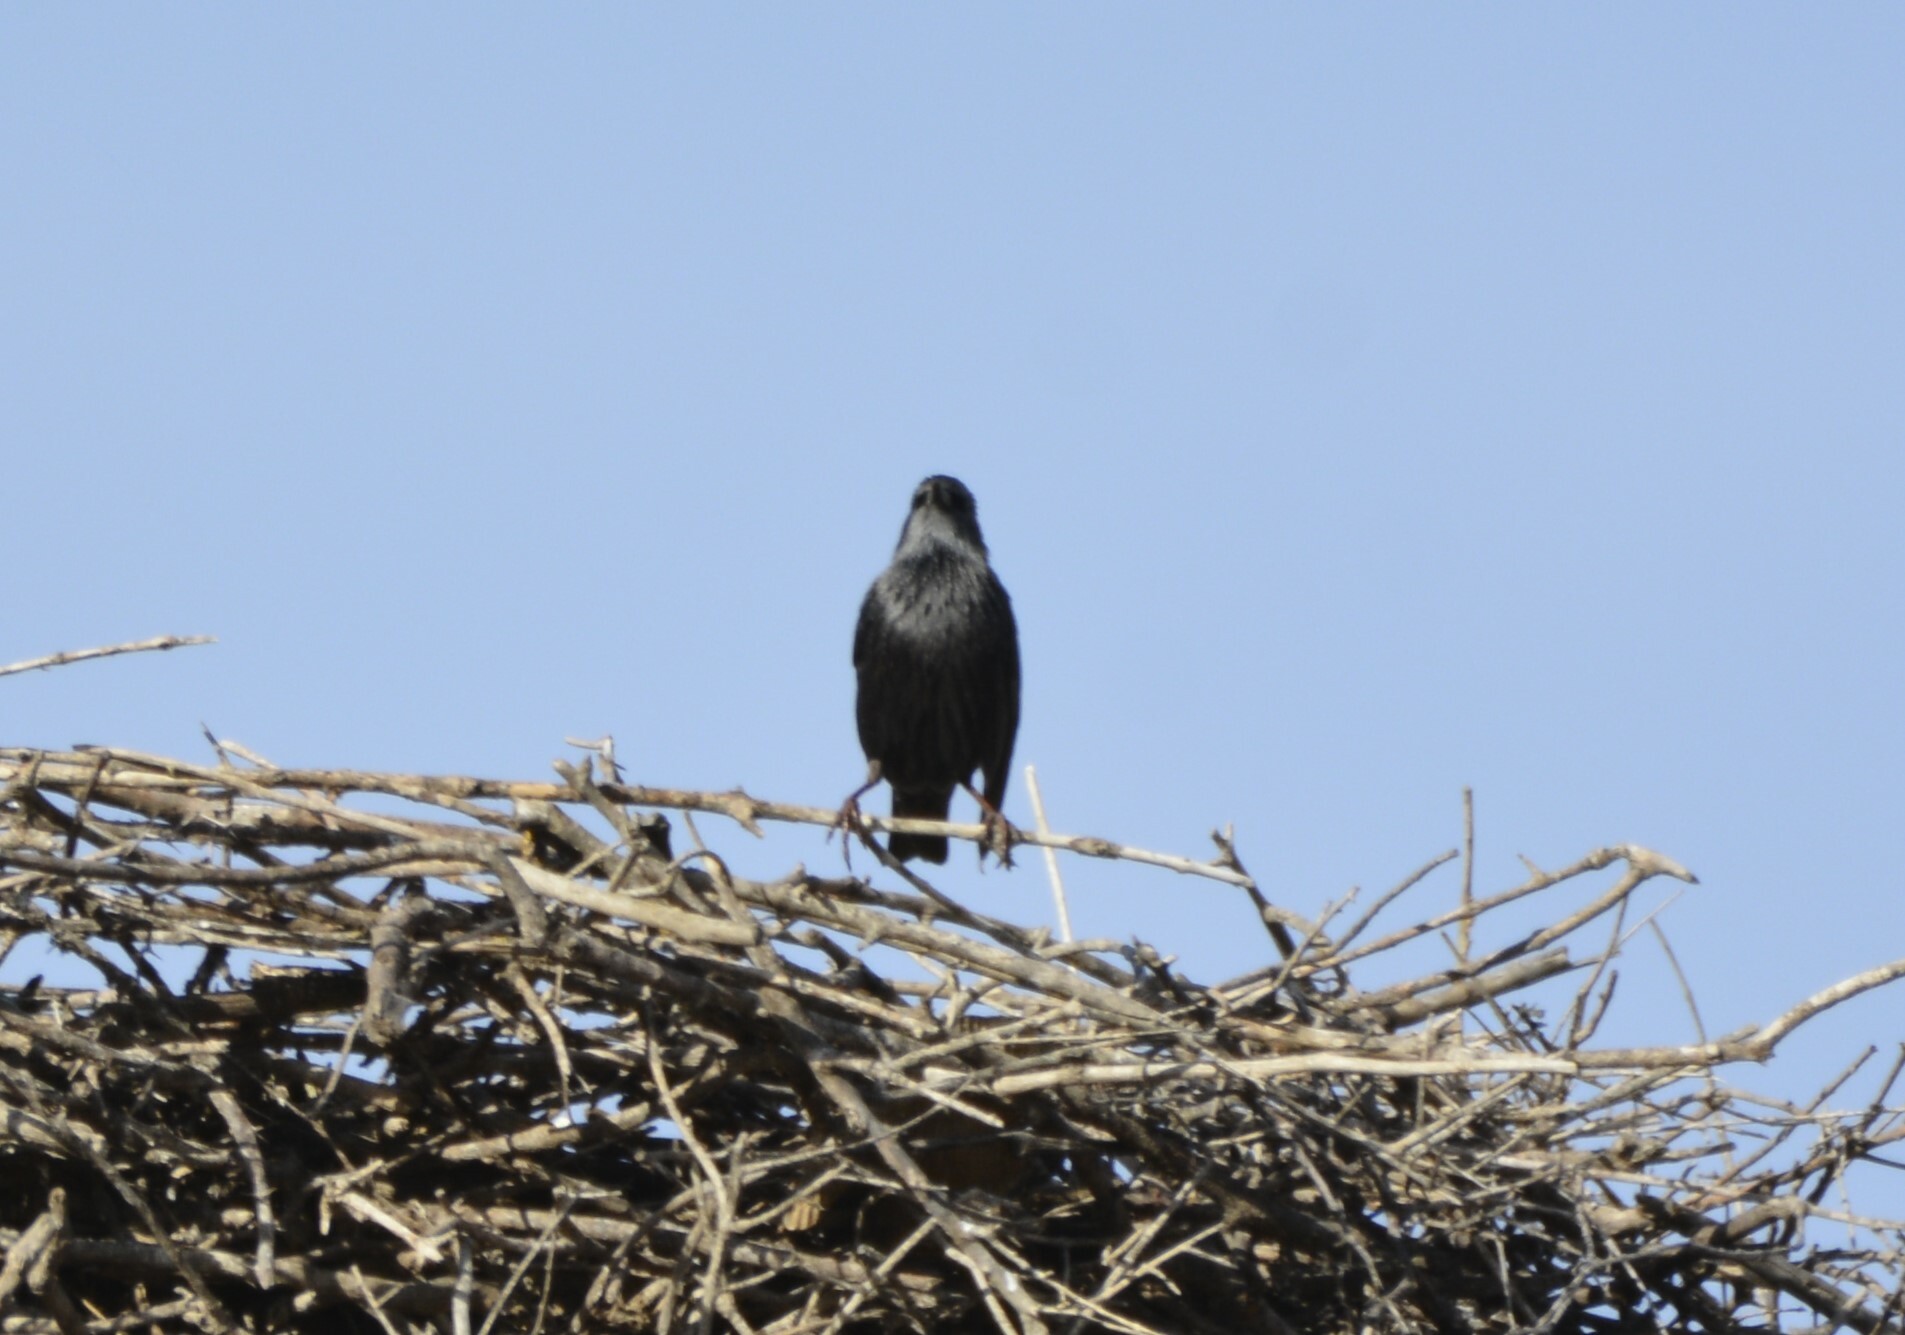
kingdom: Animalia
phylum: Chordata
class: Aves
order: Passeriformes
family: Sturnidae
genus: Sturnus
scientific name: Sturnus unicolor
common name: Spotless starling
